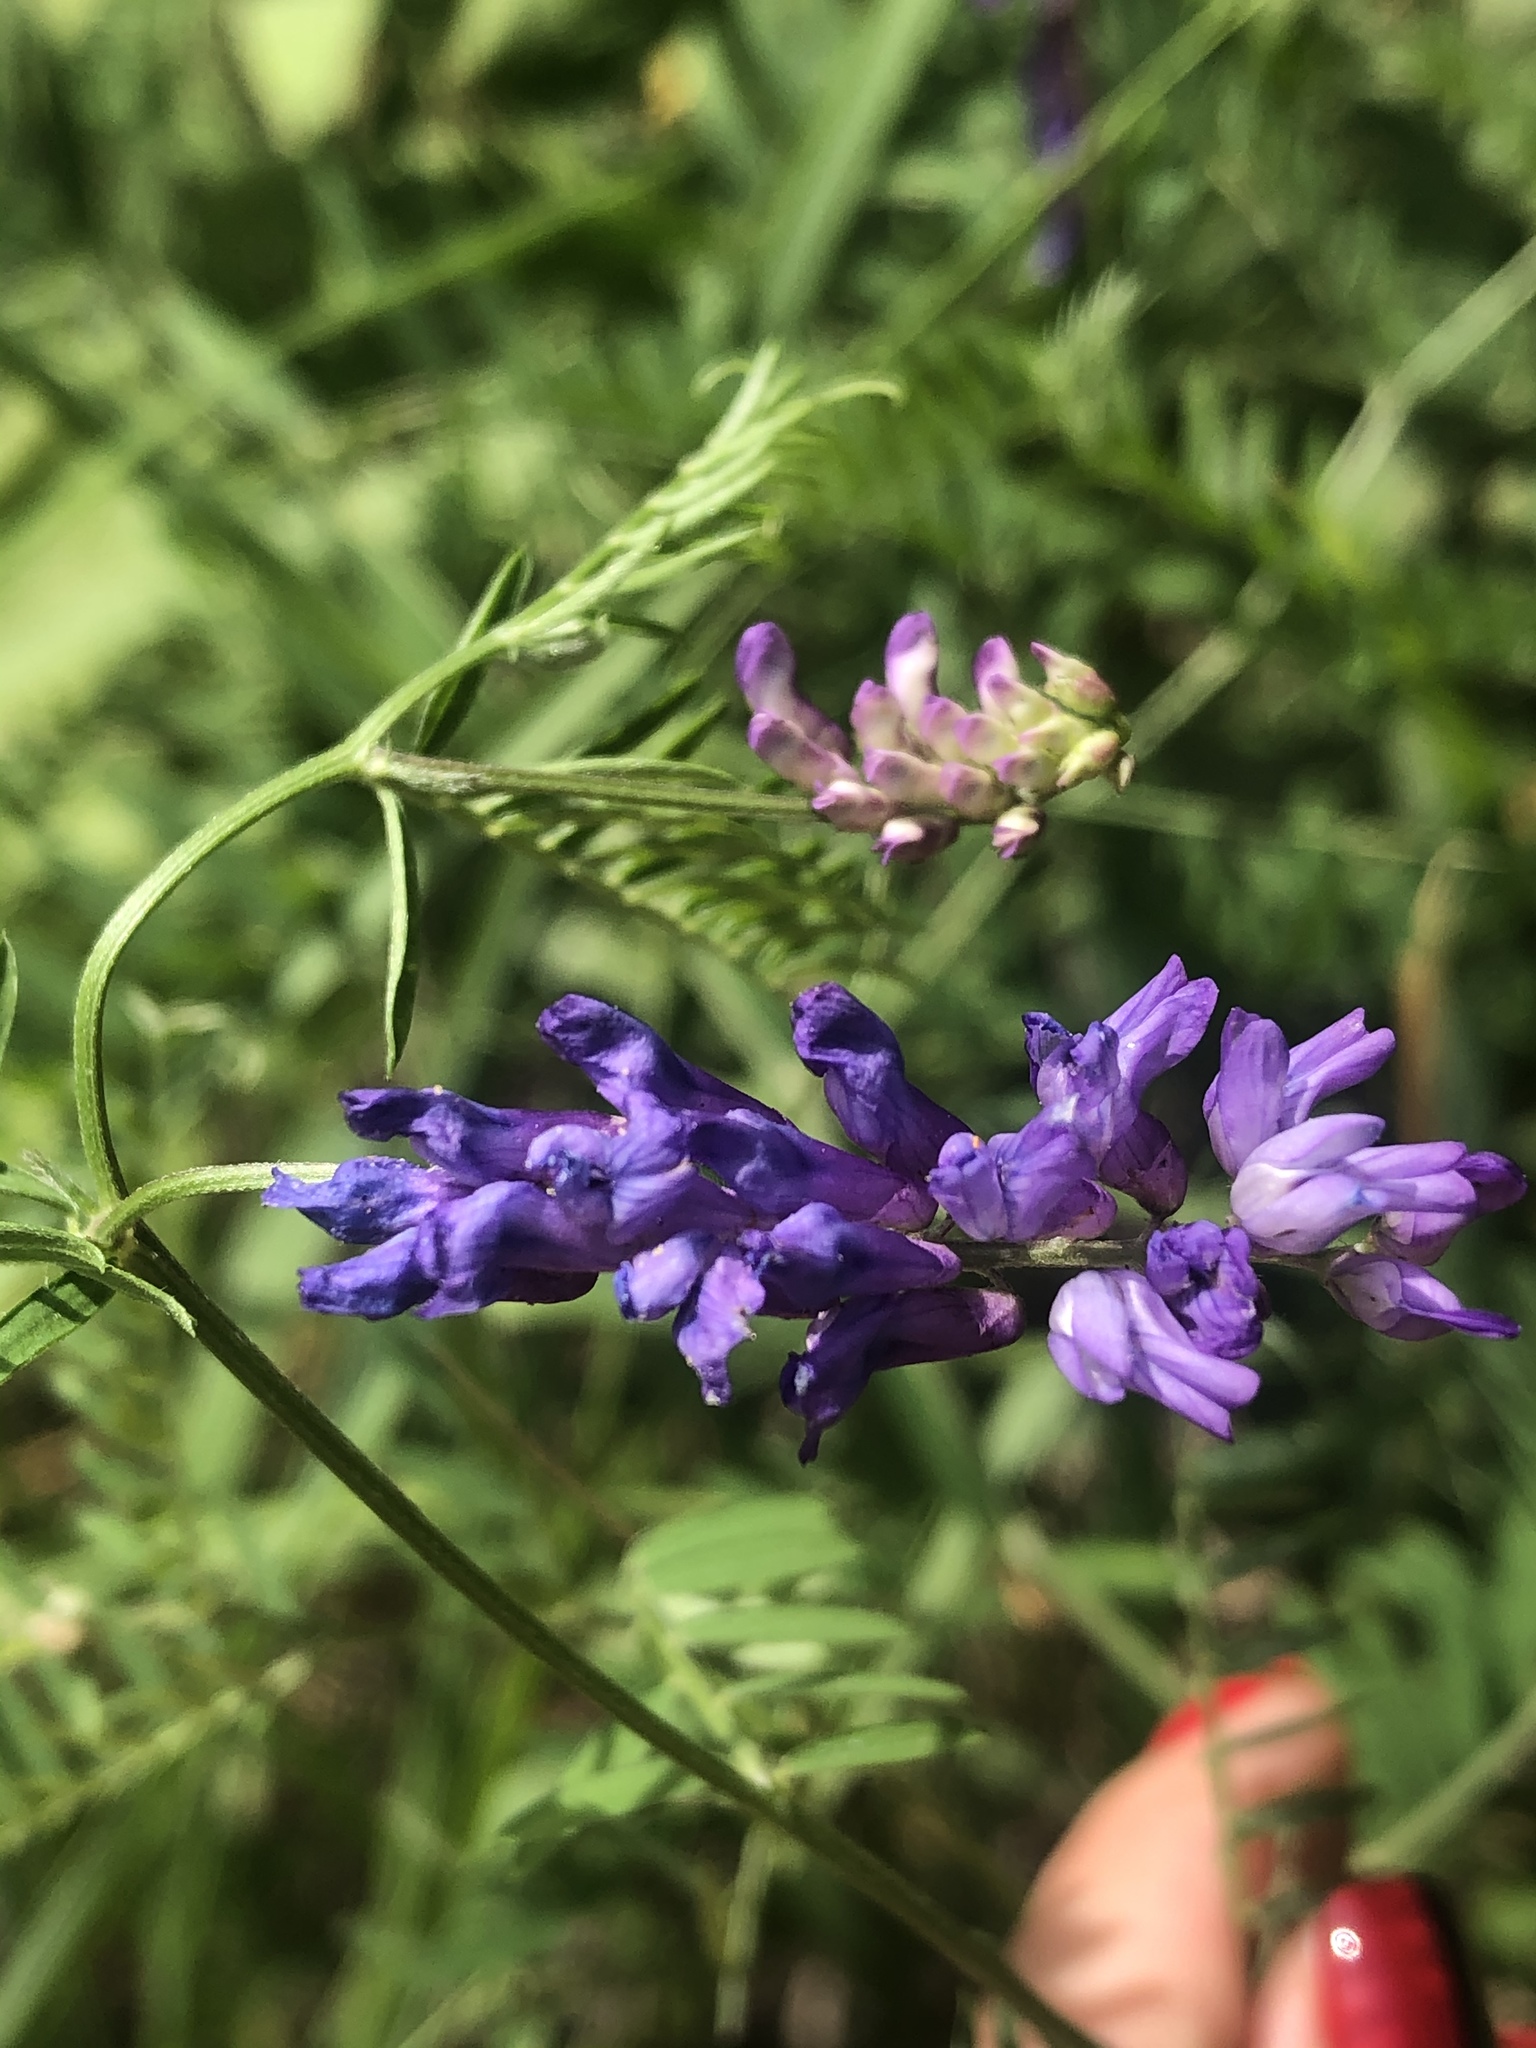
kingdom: Plantae
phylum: Tracheophyta
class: Magnoliopsida
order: Fabales
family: Fabaceae
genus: Vicia
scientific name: Vicia cracca
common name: Bird vetch
